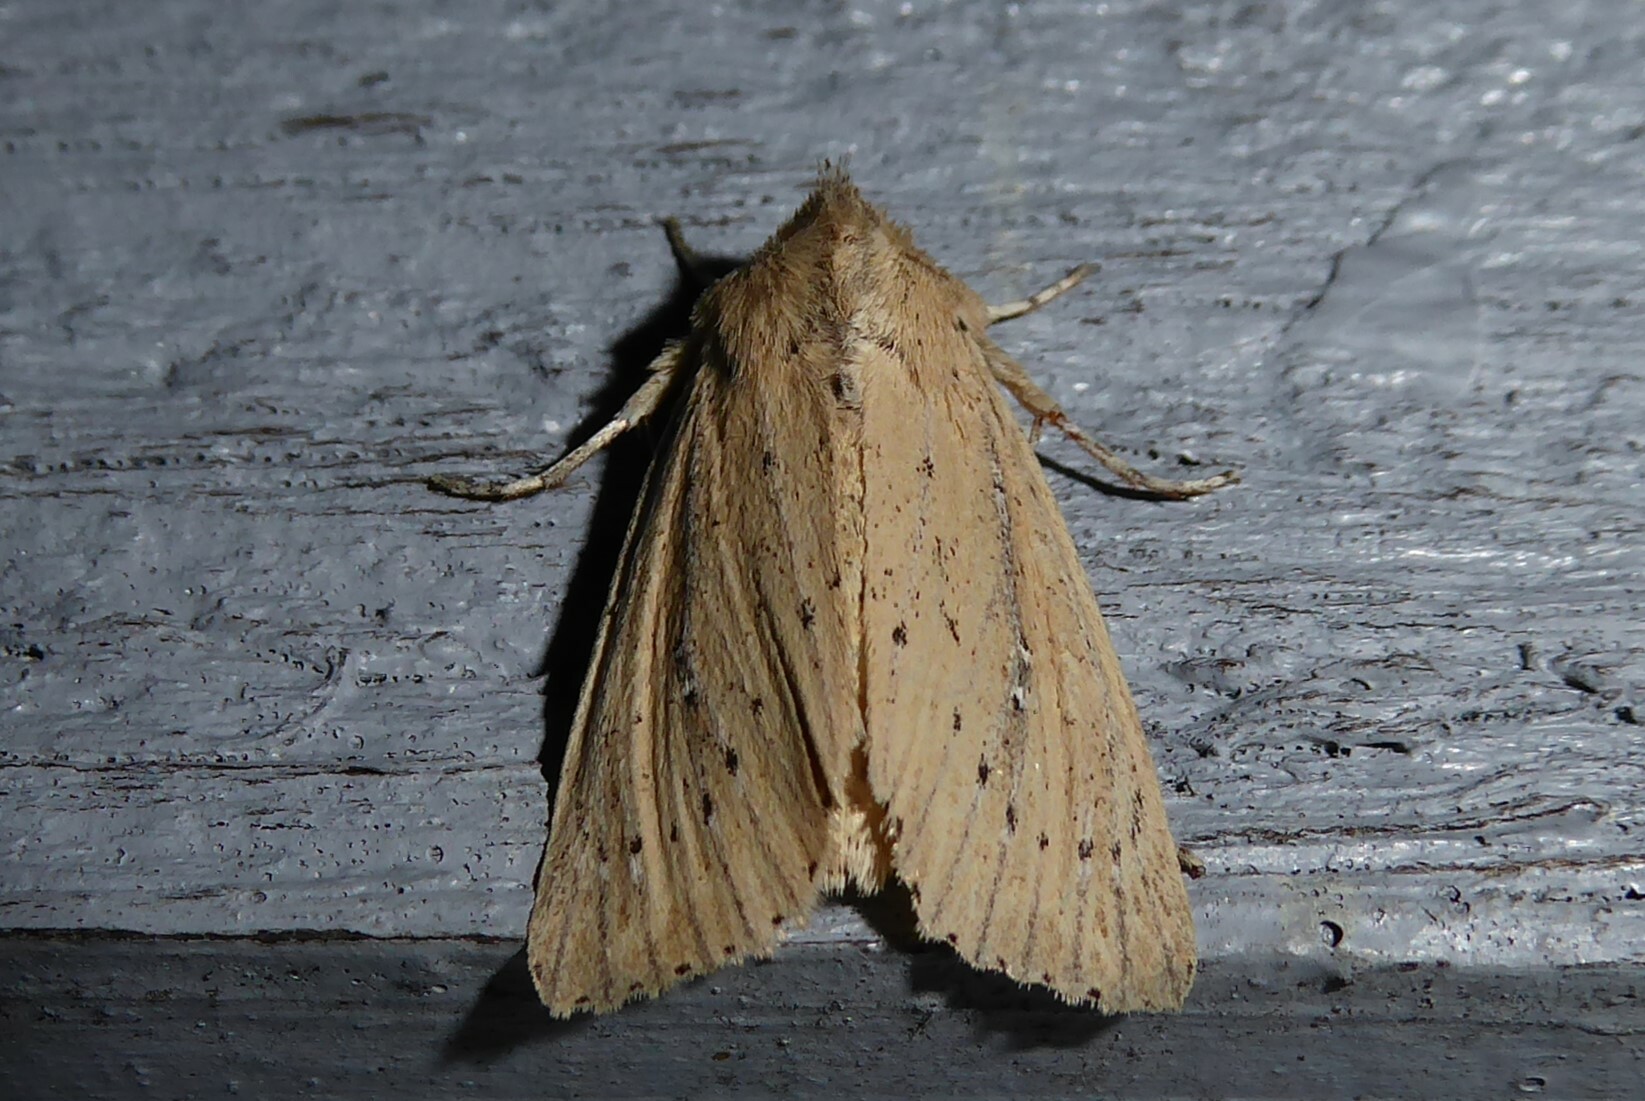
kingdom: Animalia
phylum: Arthropoda
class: Insecta
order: Lepidoptera
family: Noctuidae
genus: Ichneutica
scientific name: Ichneutica
